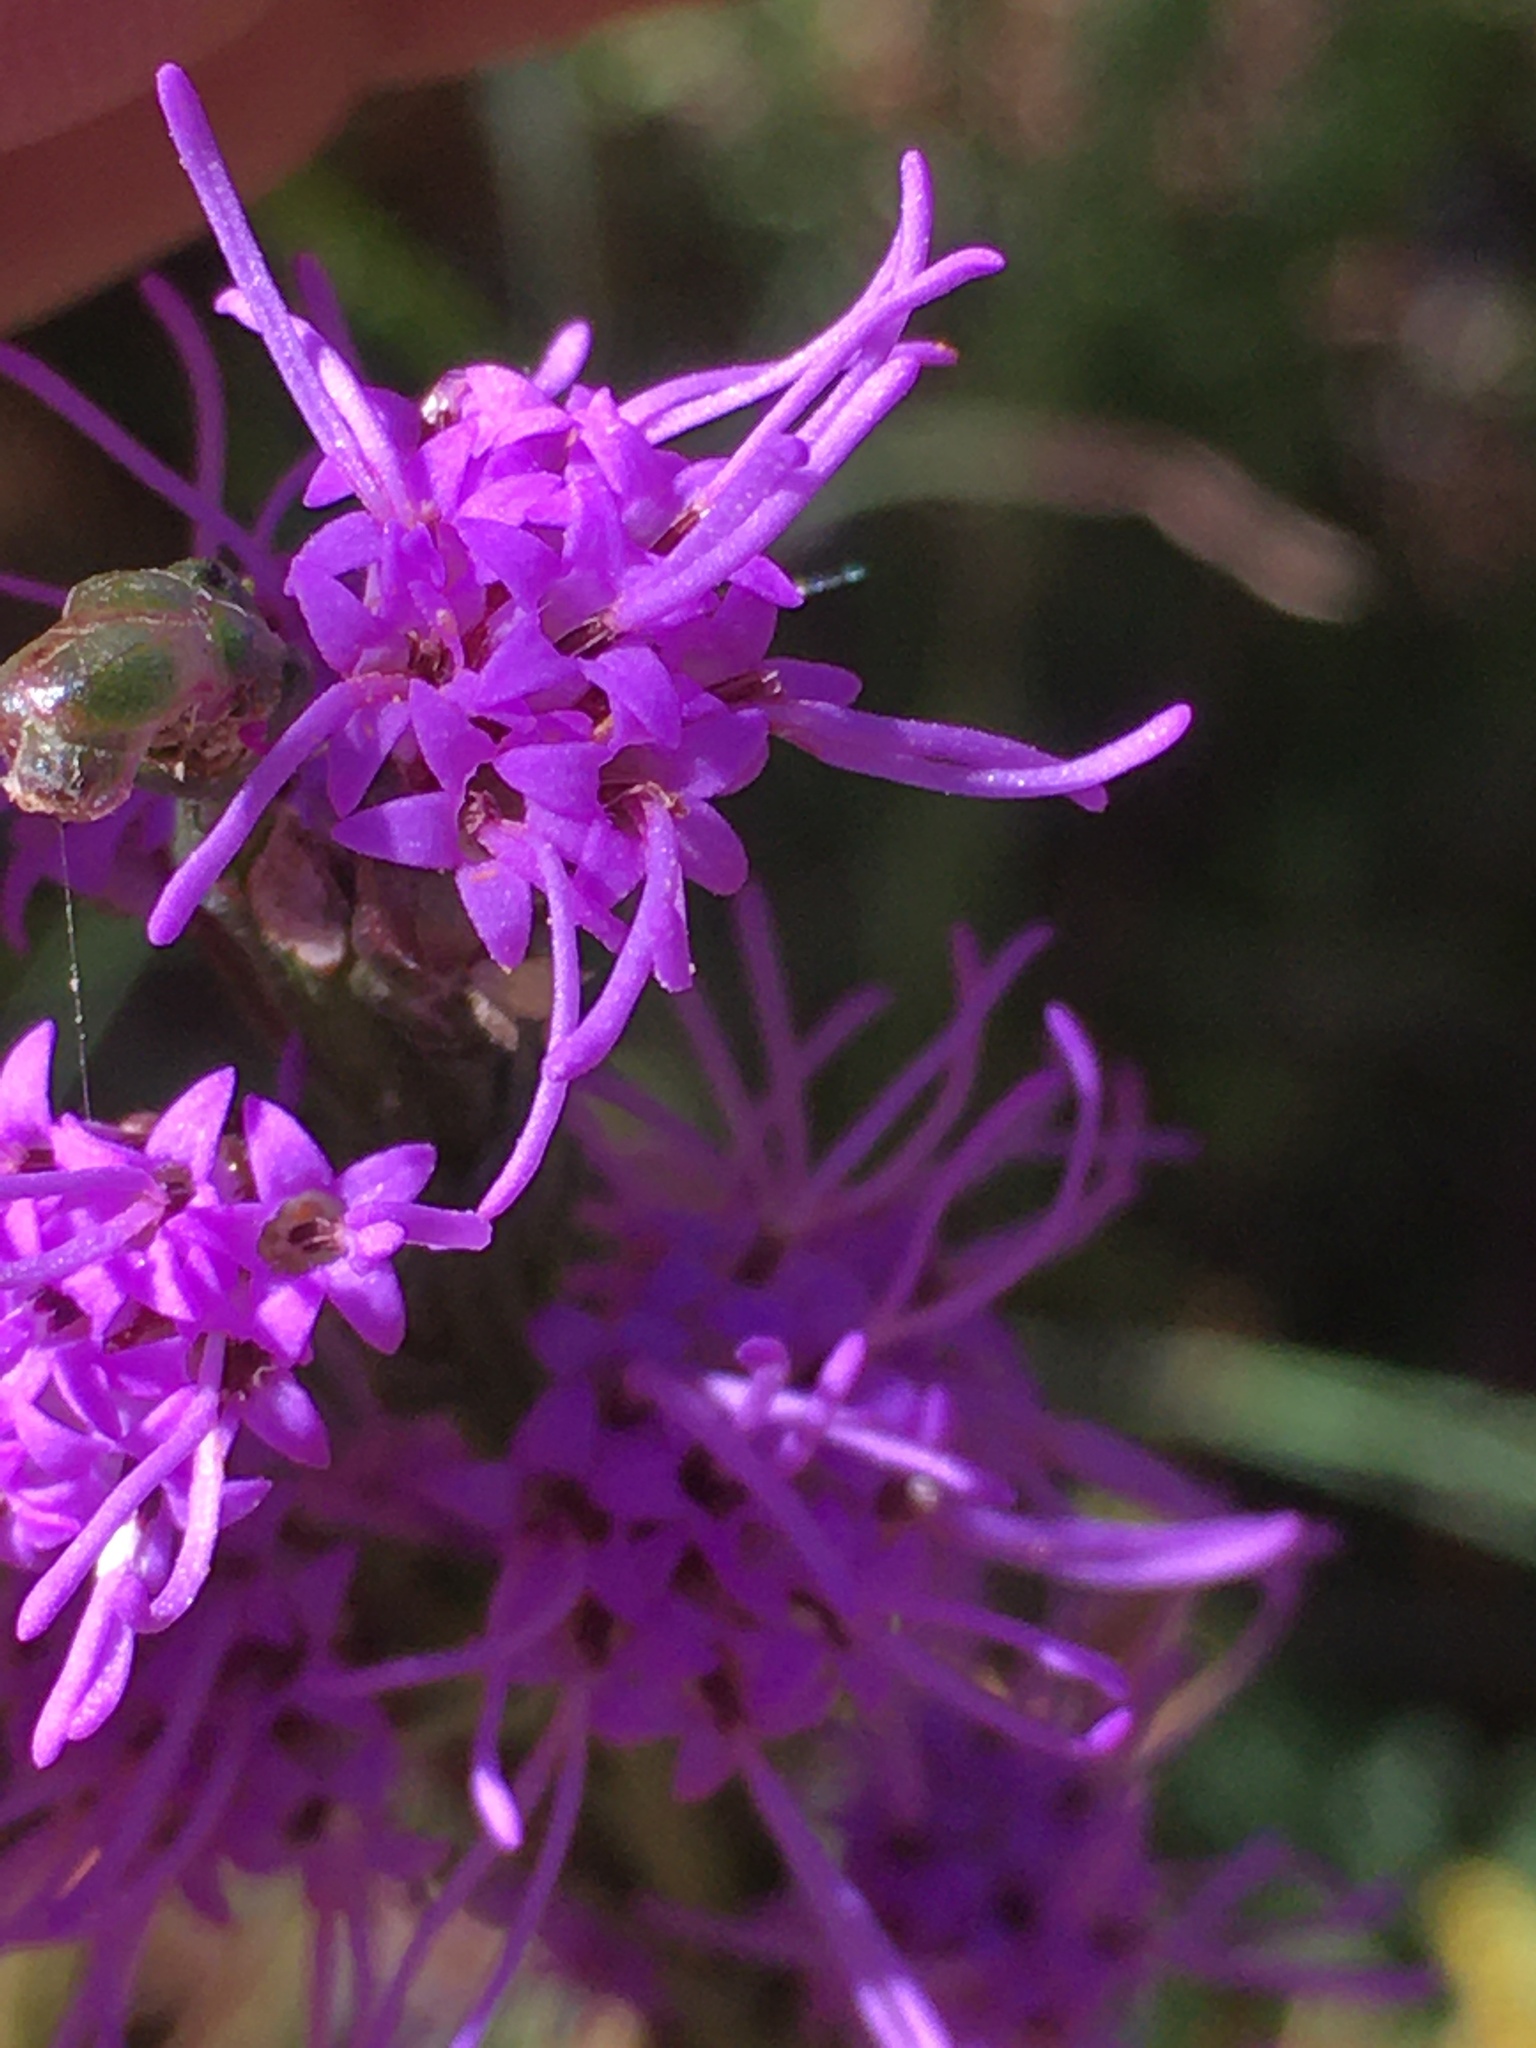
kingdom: Plantae
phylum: Tracheophyta
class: Magnoliopsida
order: Asterales
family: Asteraceae
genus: Liatris
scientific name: Liatris pilosa
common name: Grass-leaf gayfeather
